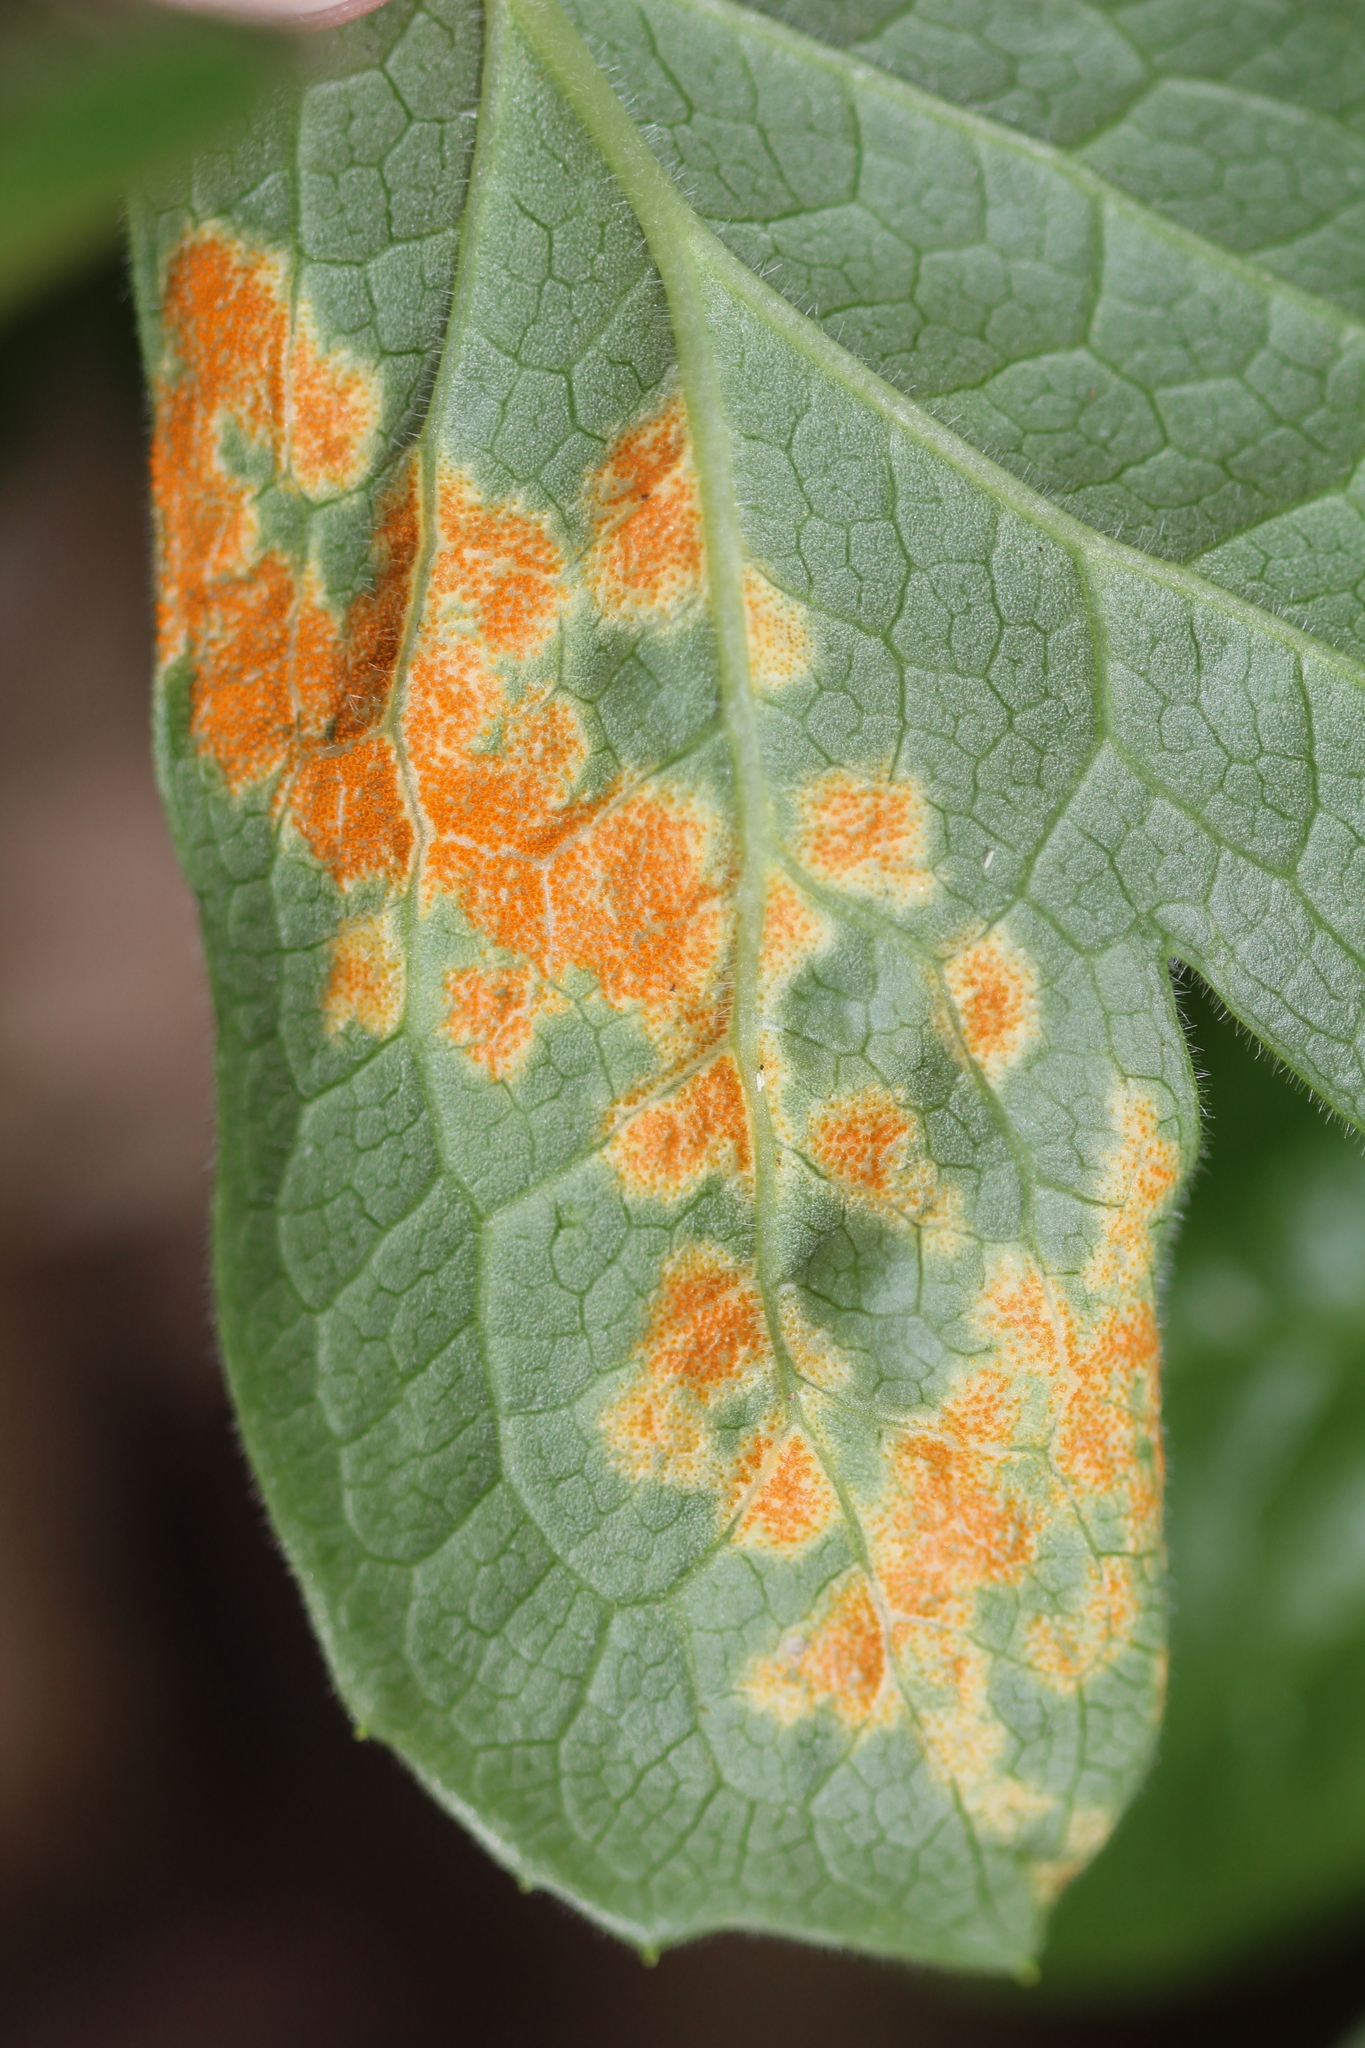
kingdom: Fungi
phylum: Basidiomycota
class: Pucciniomycetes
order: Pucciniales
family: Pucciniaceae
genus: Puccinia
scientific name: Puccinia podophylli
